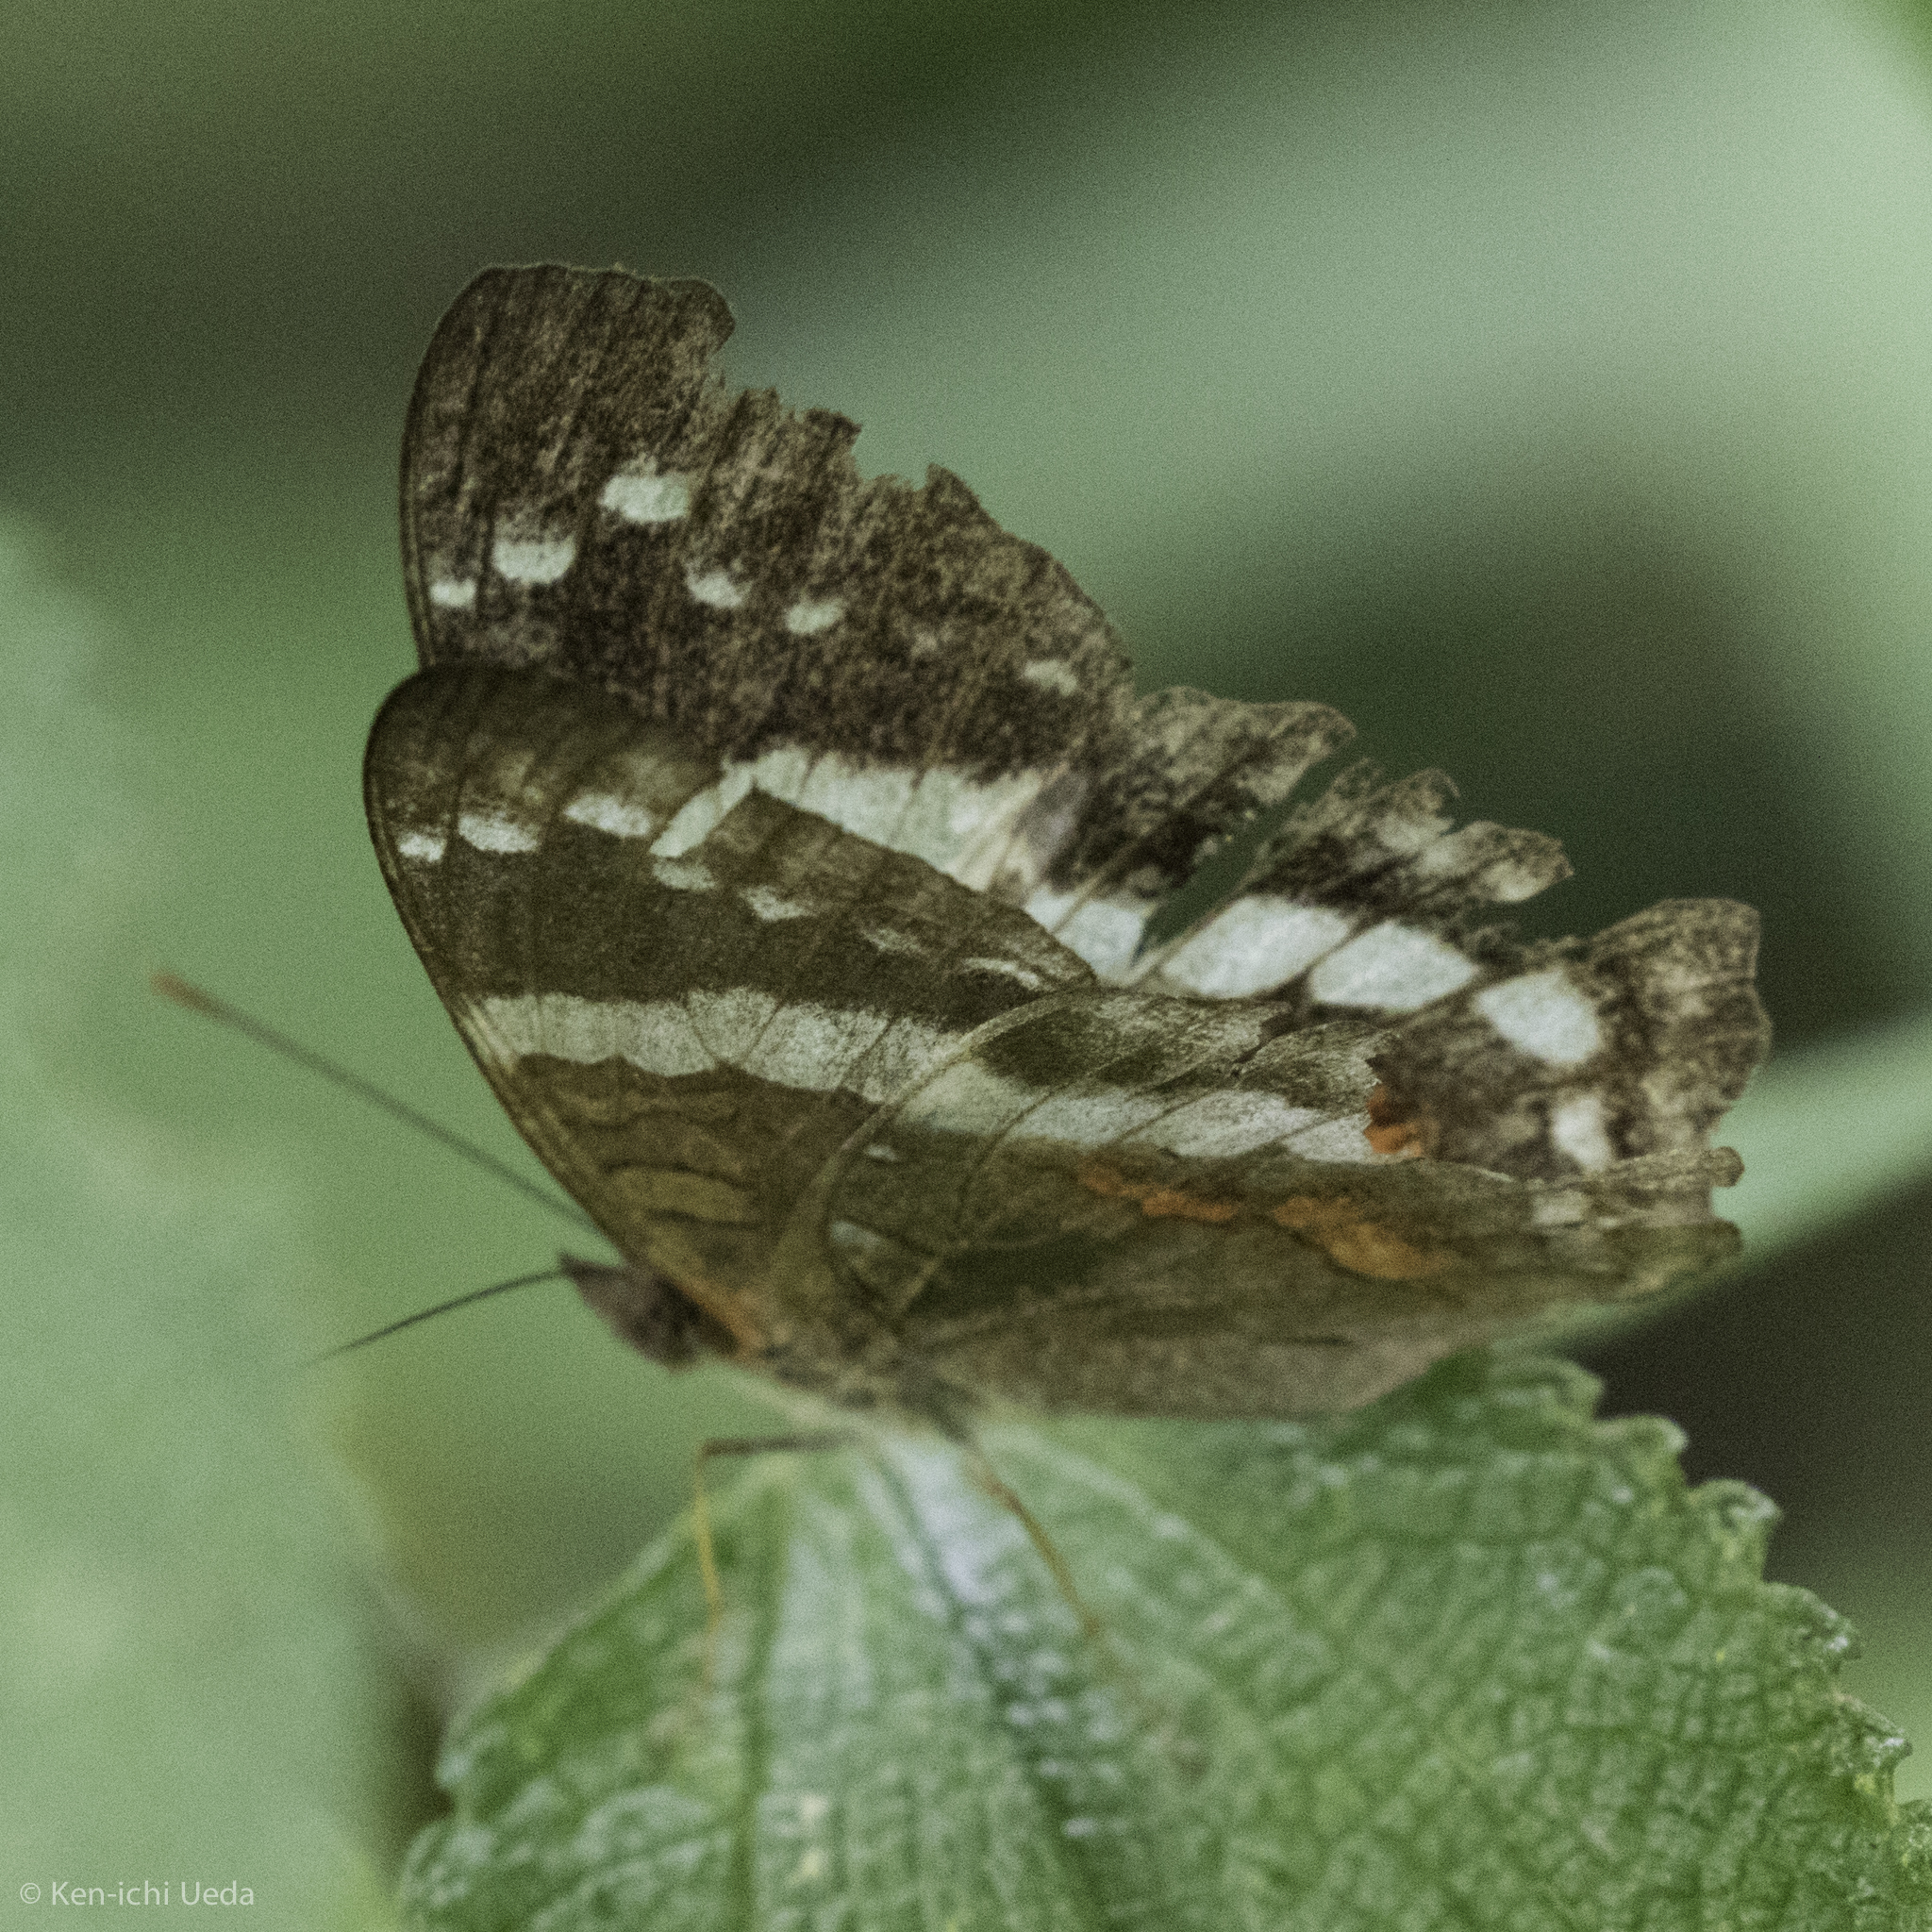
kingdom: Animalia
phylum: Arthropoda
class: Insecta
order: Lepidoptera
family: Nymphalidae
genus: Anartia
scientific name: Anartia fatima
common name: Banded peacock
